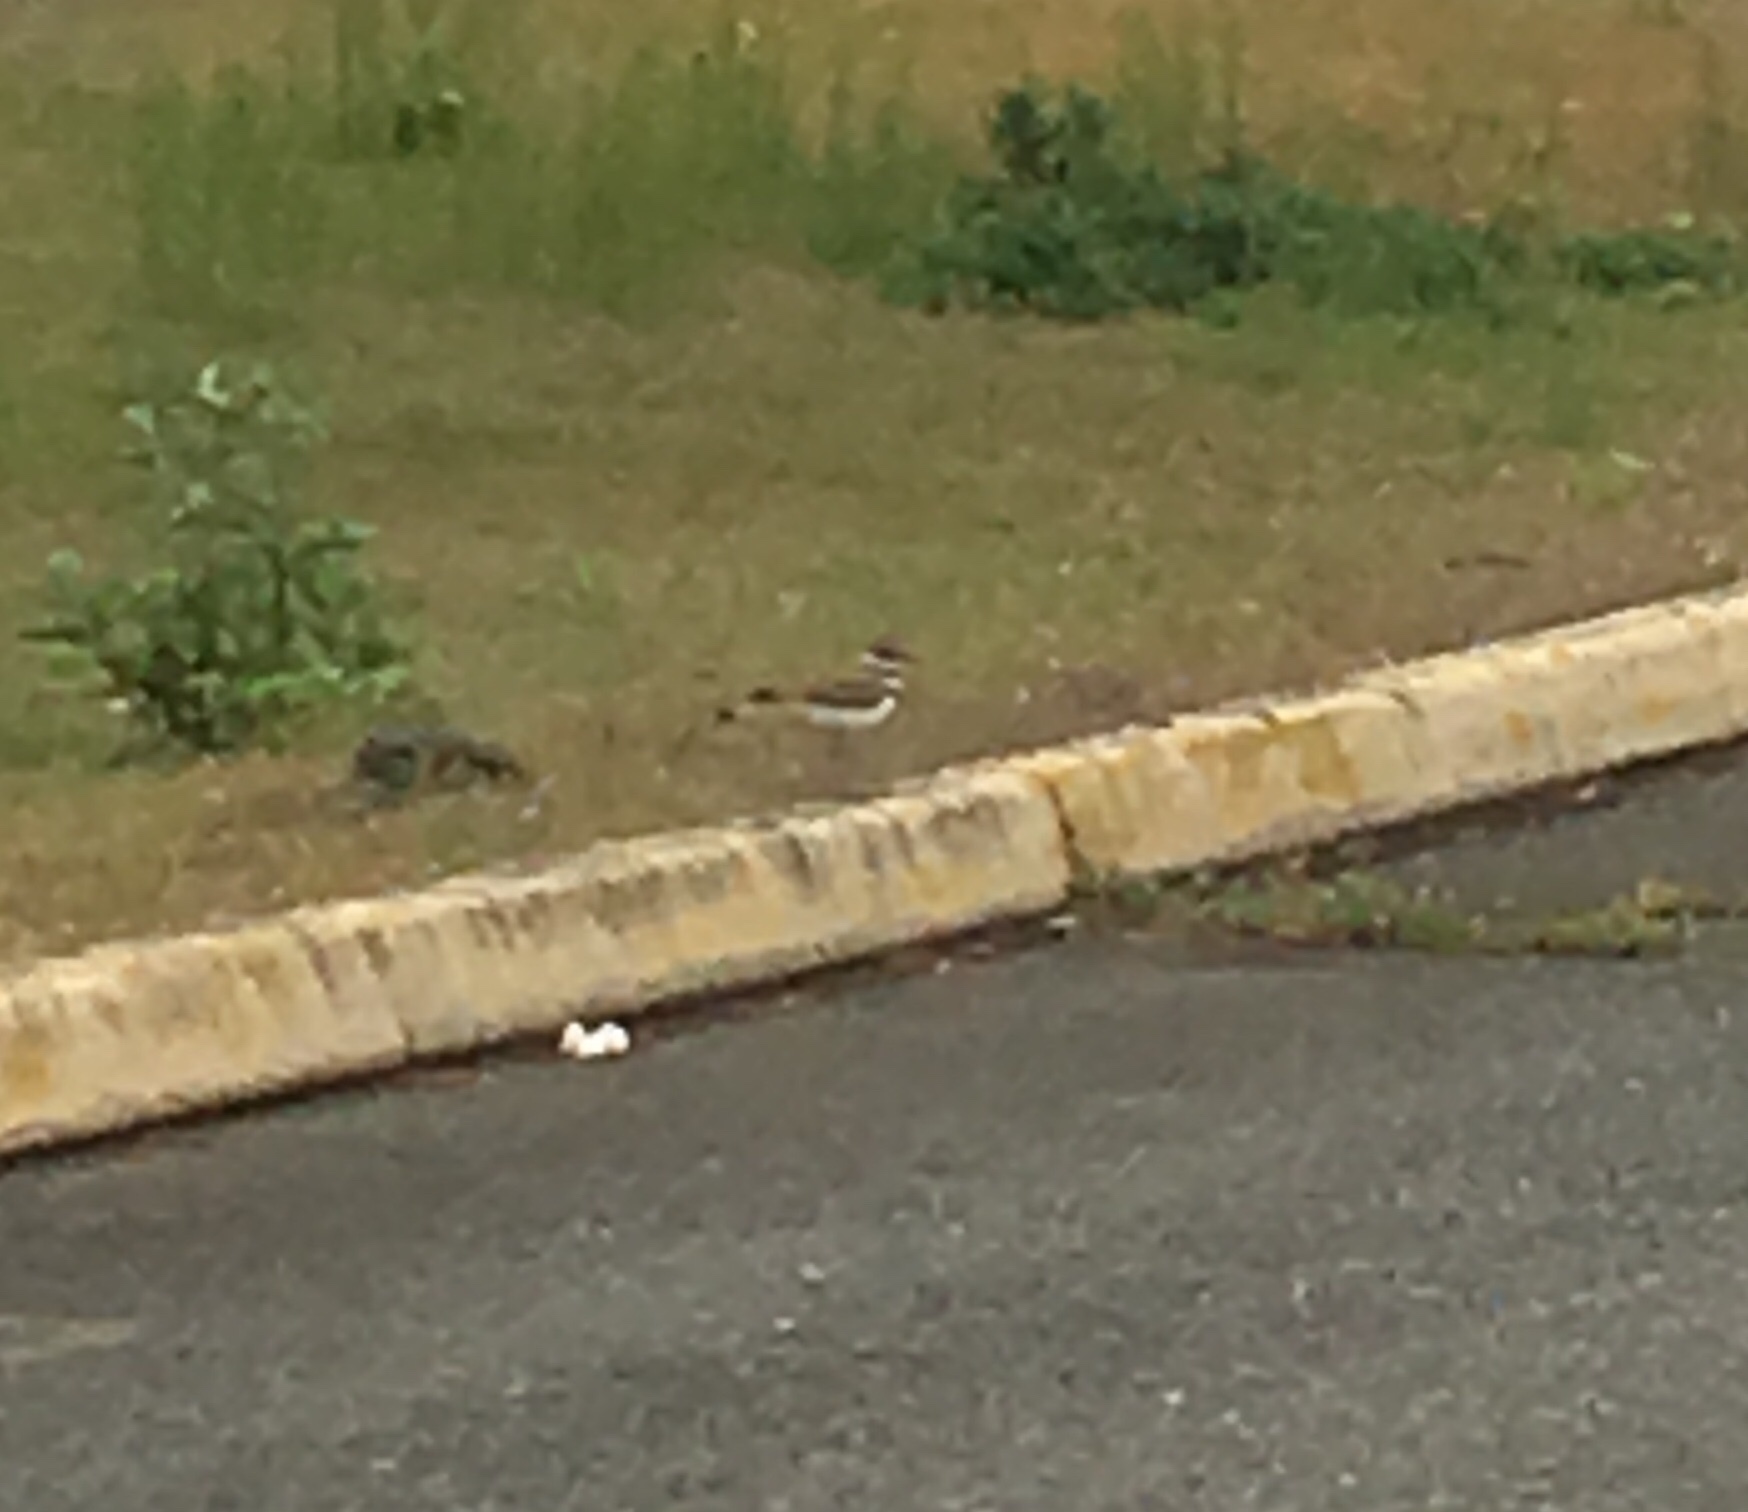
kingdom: Animalia
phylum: Chordata
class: Aves
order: Charadriiformes
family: Charadriidae
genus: Charadrius
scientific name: Charadrius vociferus
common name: Killdeer
